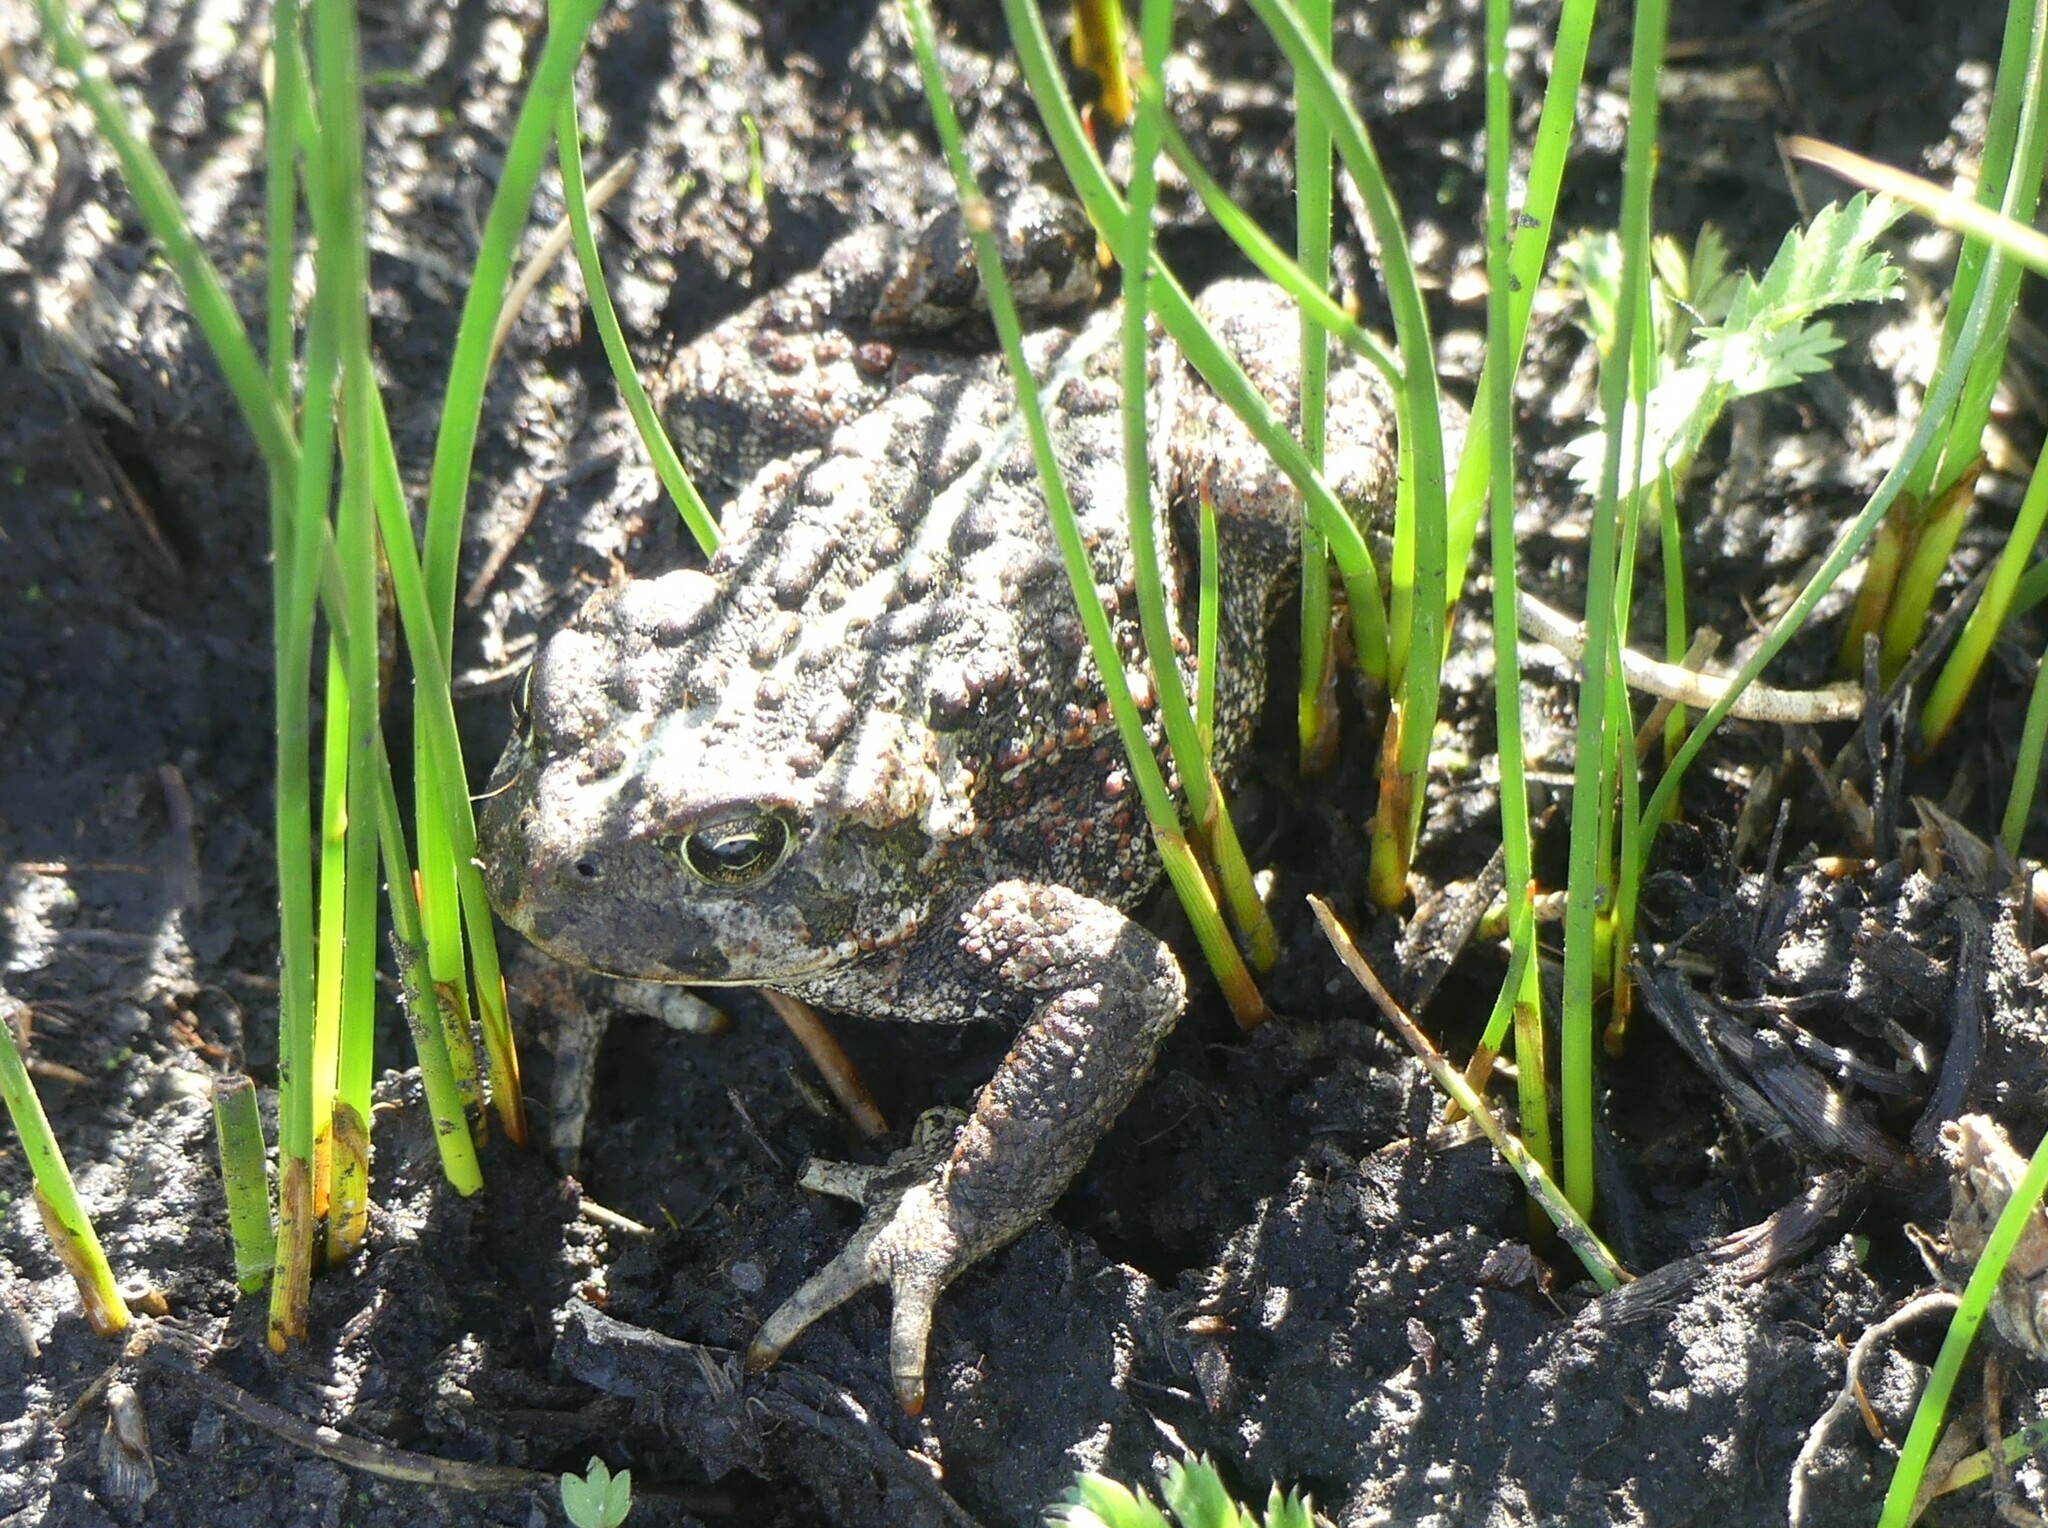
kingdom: Animalia
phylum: Chordata
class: Amphibia
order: Anura
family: Bufonidae
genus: Anaxyrus
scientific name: Anaxyrus boreas
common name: Western toad
